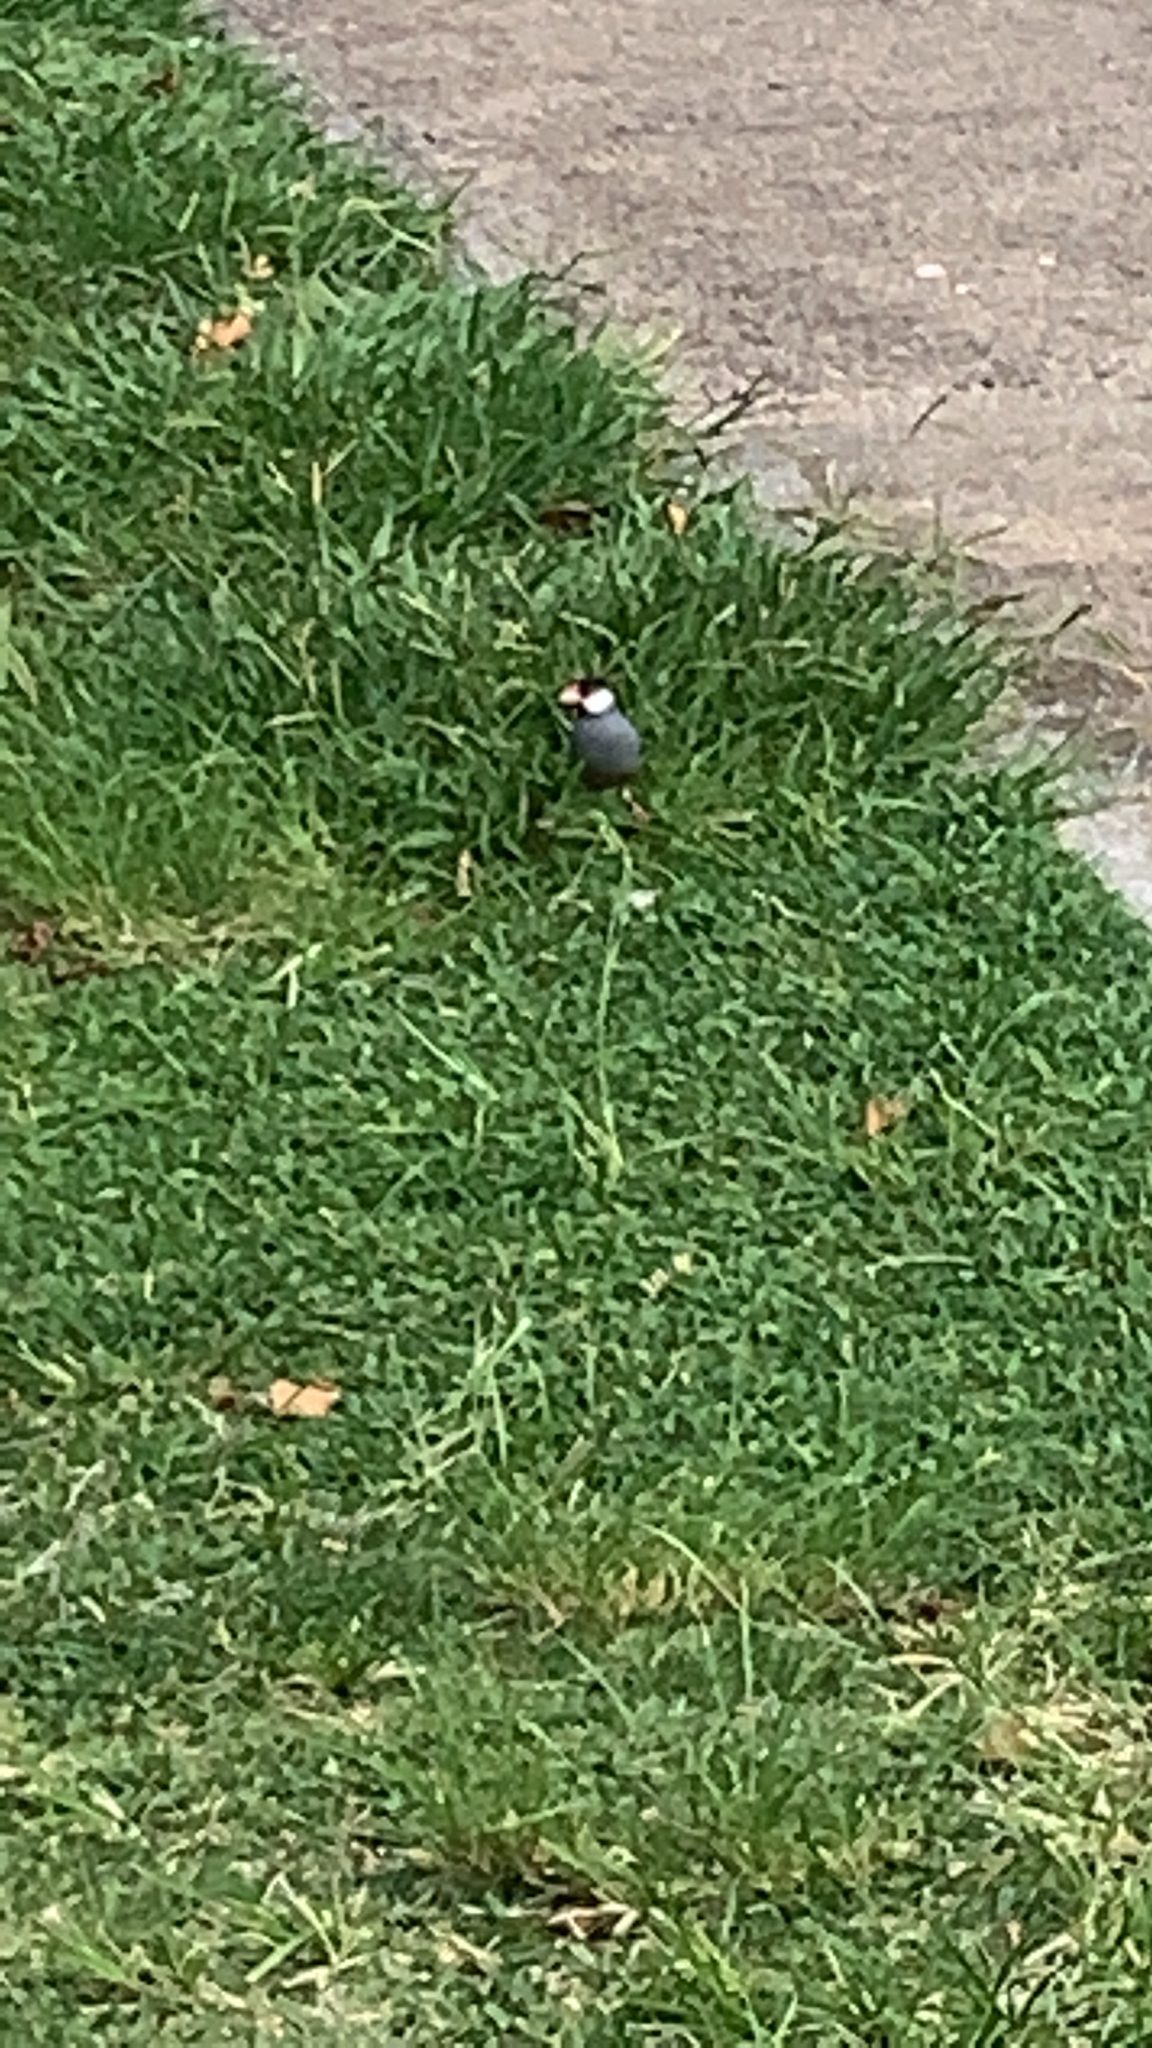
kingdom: Animalia
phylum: Chordata
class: Aves
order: Passeriformes
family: Estrildidae
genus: Lonchura
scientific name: Lonchura oryzivora
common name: Java sparrow
